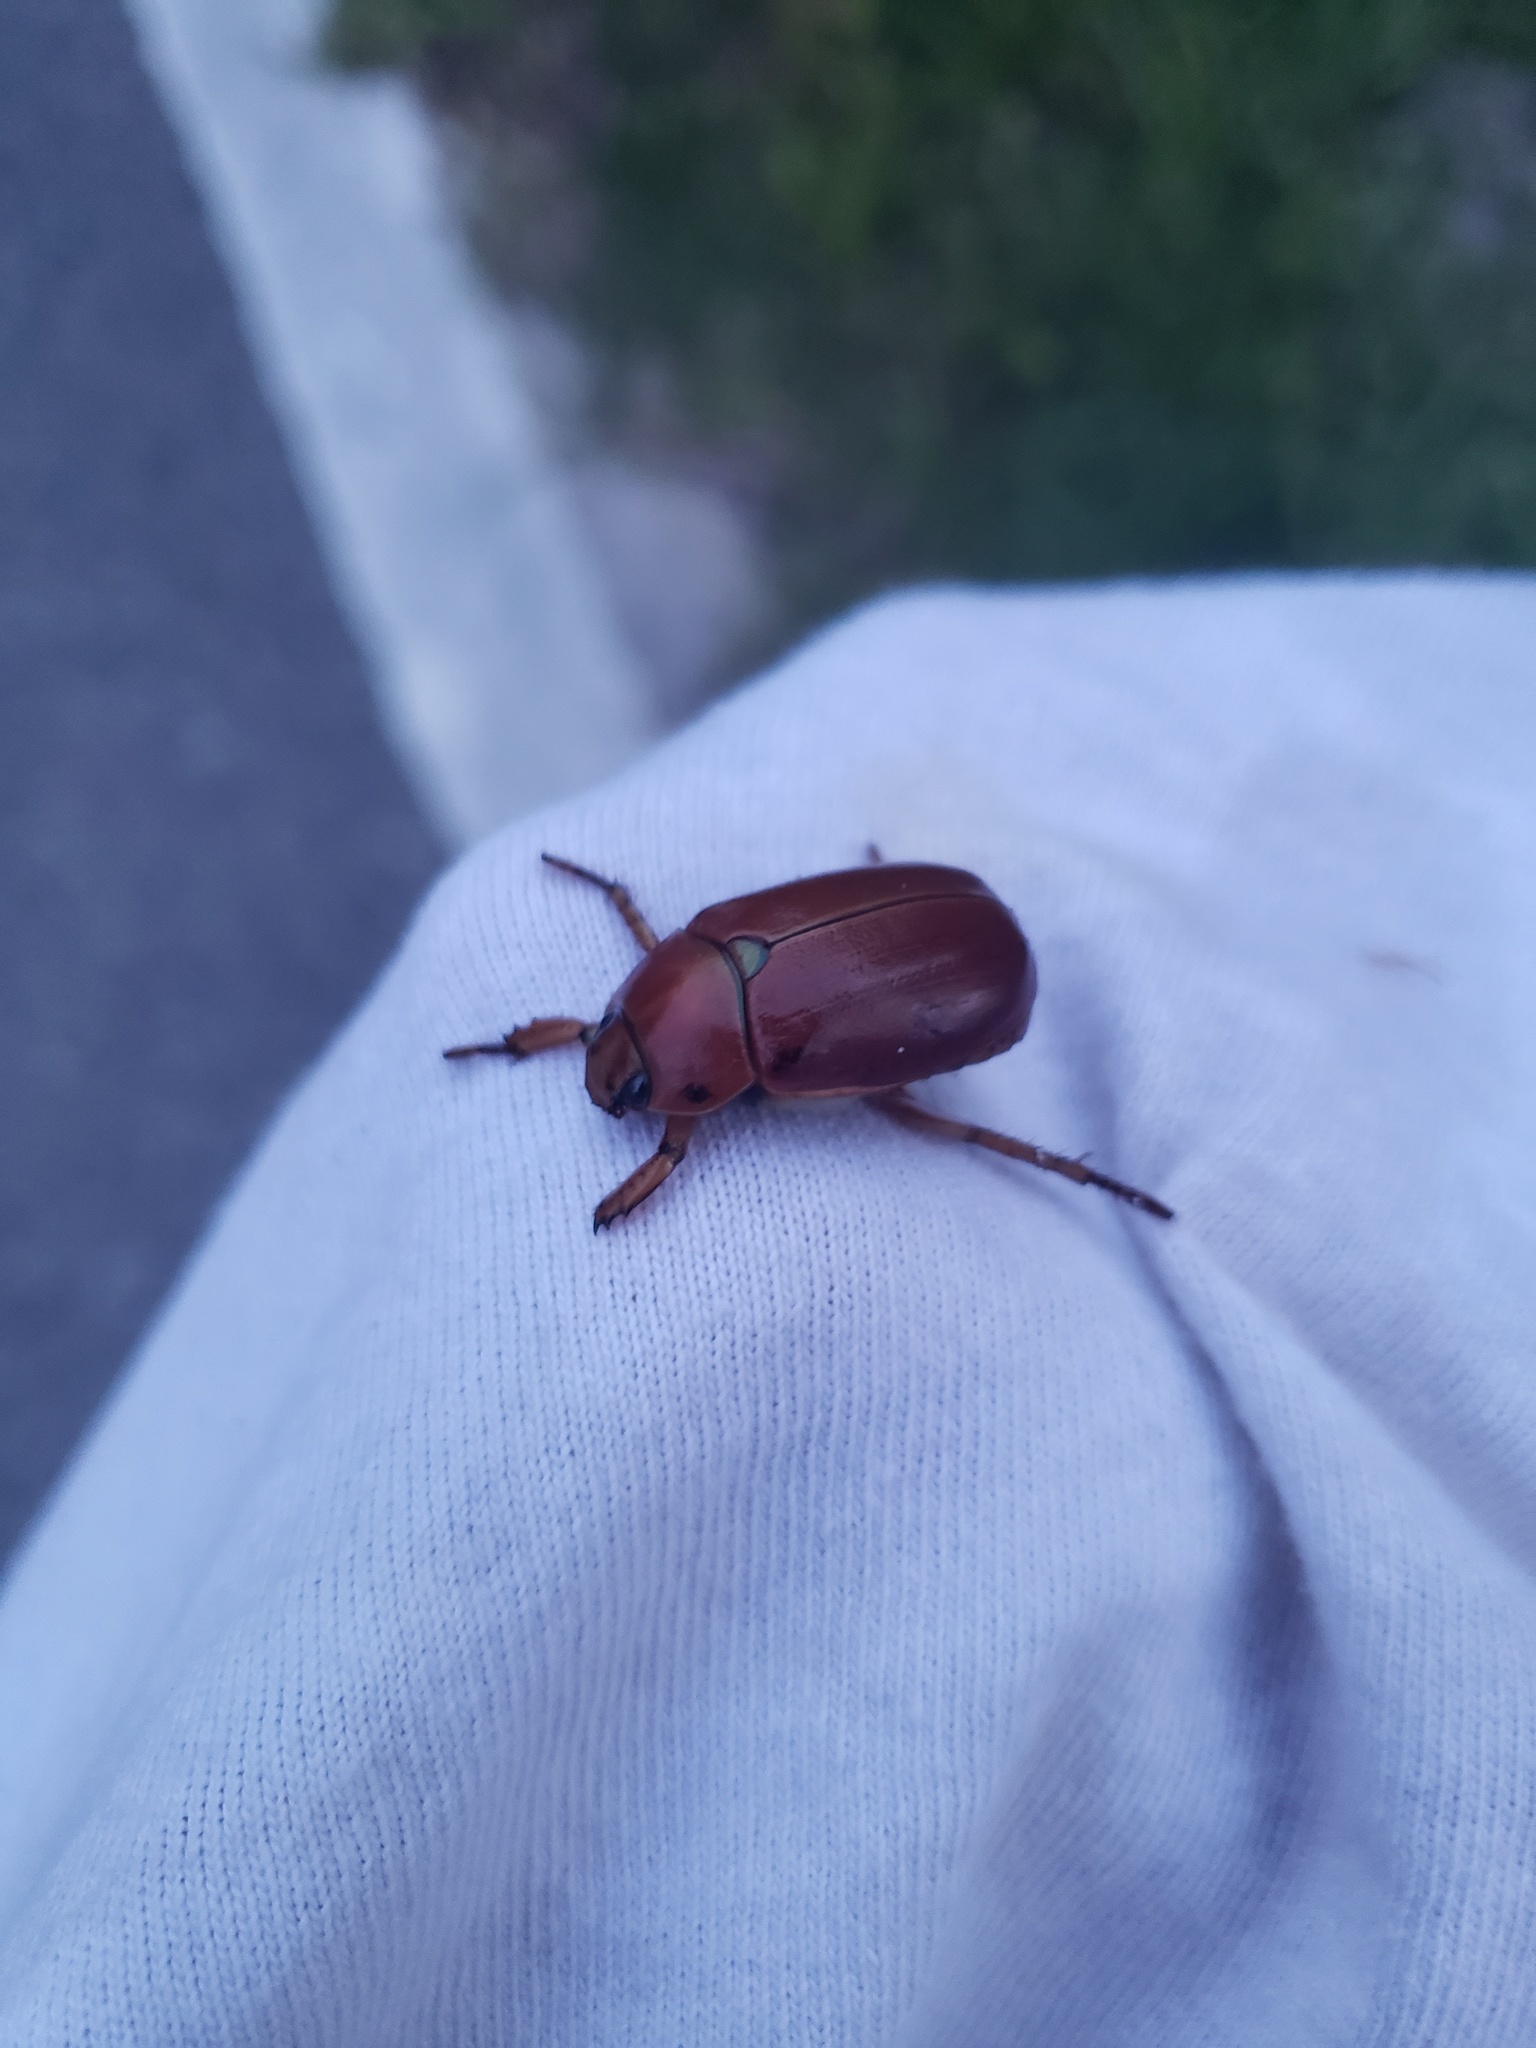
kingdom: Animalia
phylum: Arthropoda
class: Insecta
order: Coleoptera
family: Scarabaeidae
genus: Pelidnota
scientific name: Pelidnota punctata
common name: Grapevine beetle
